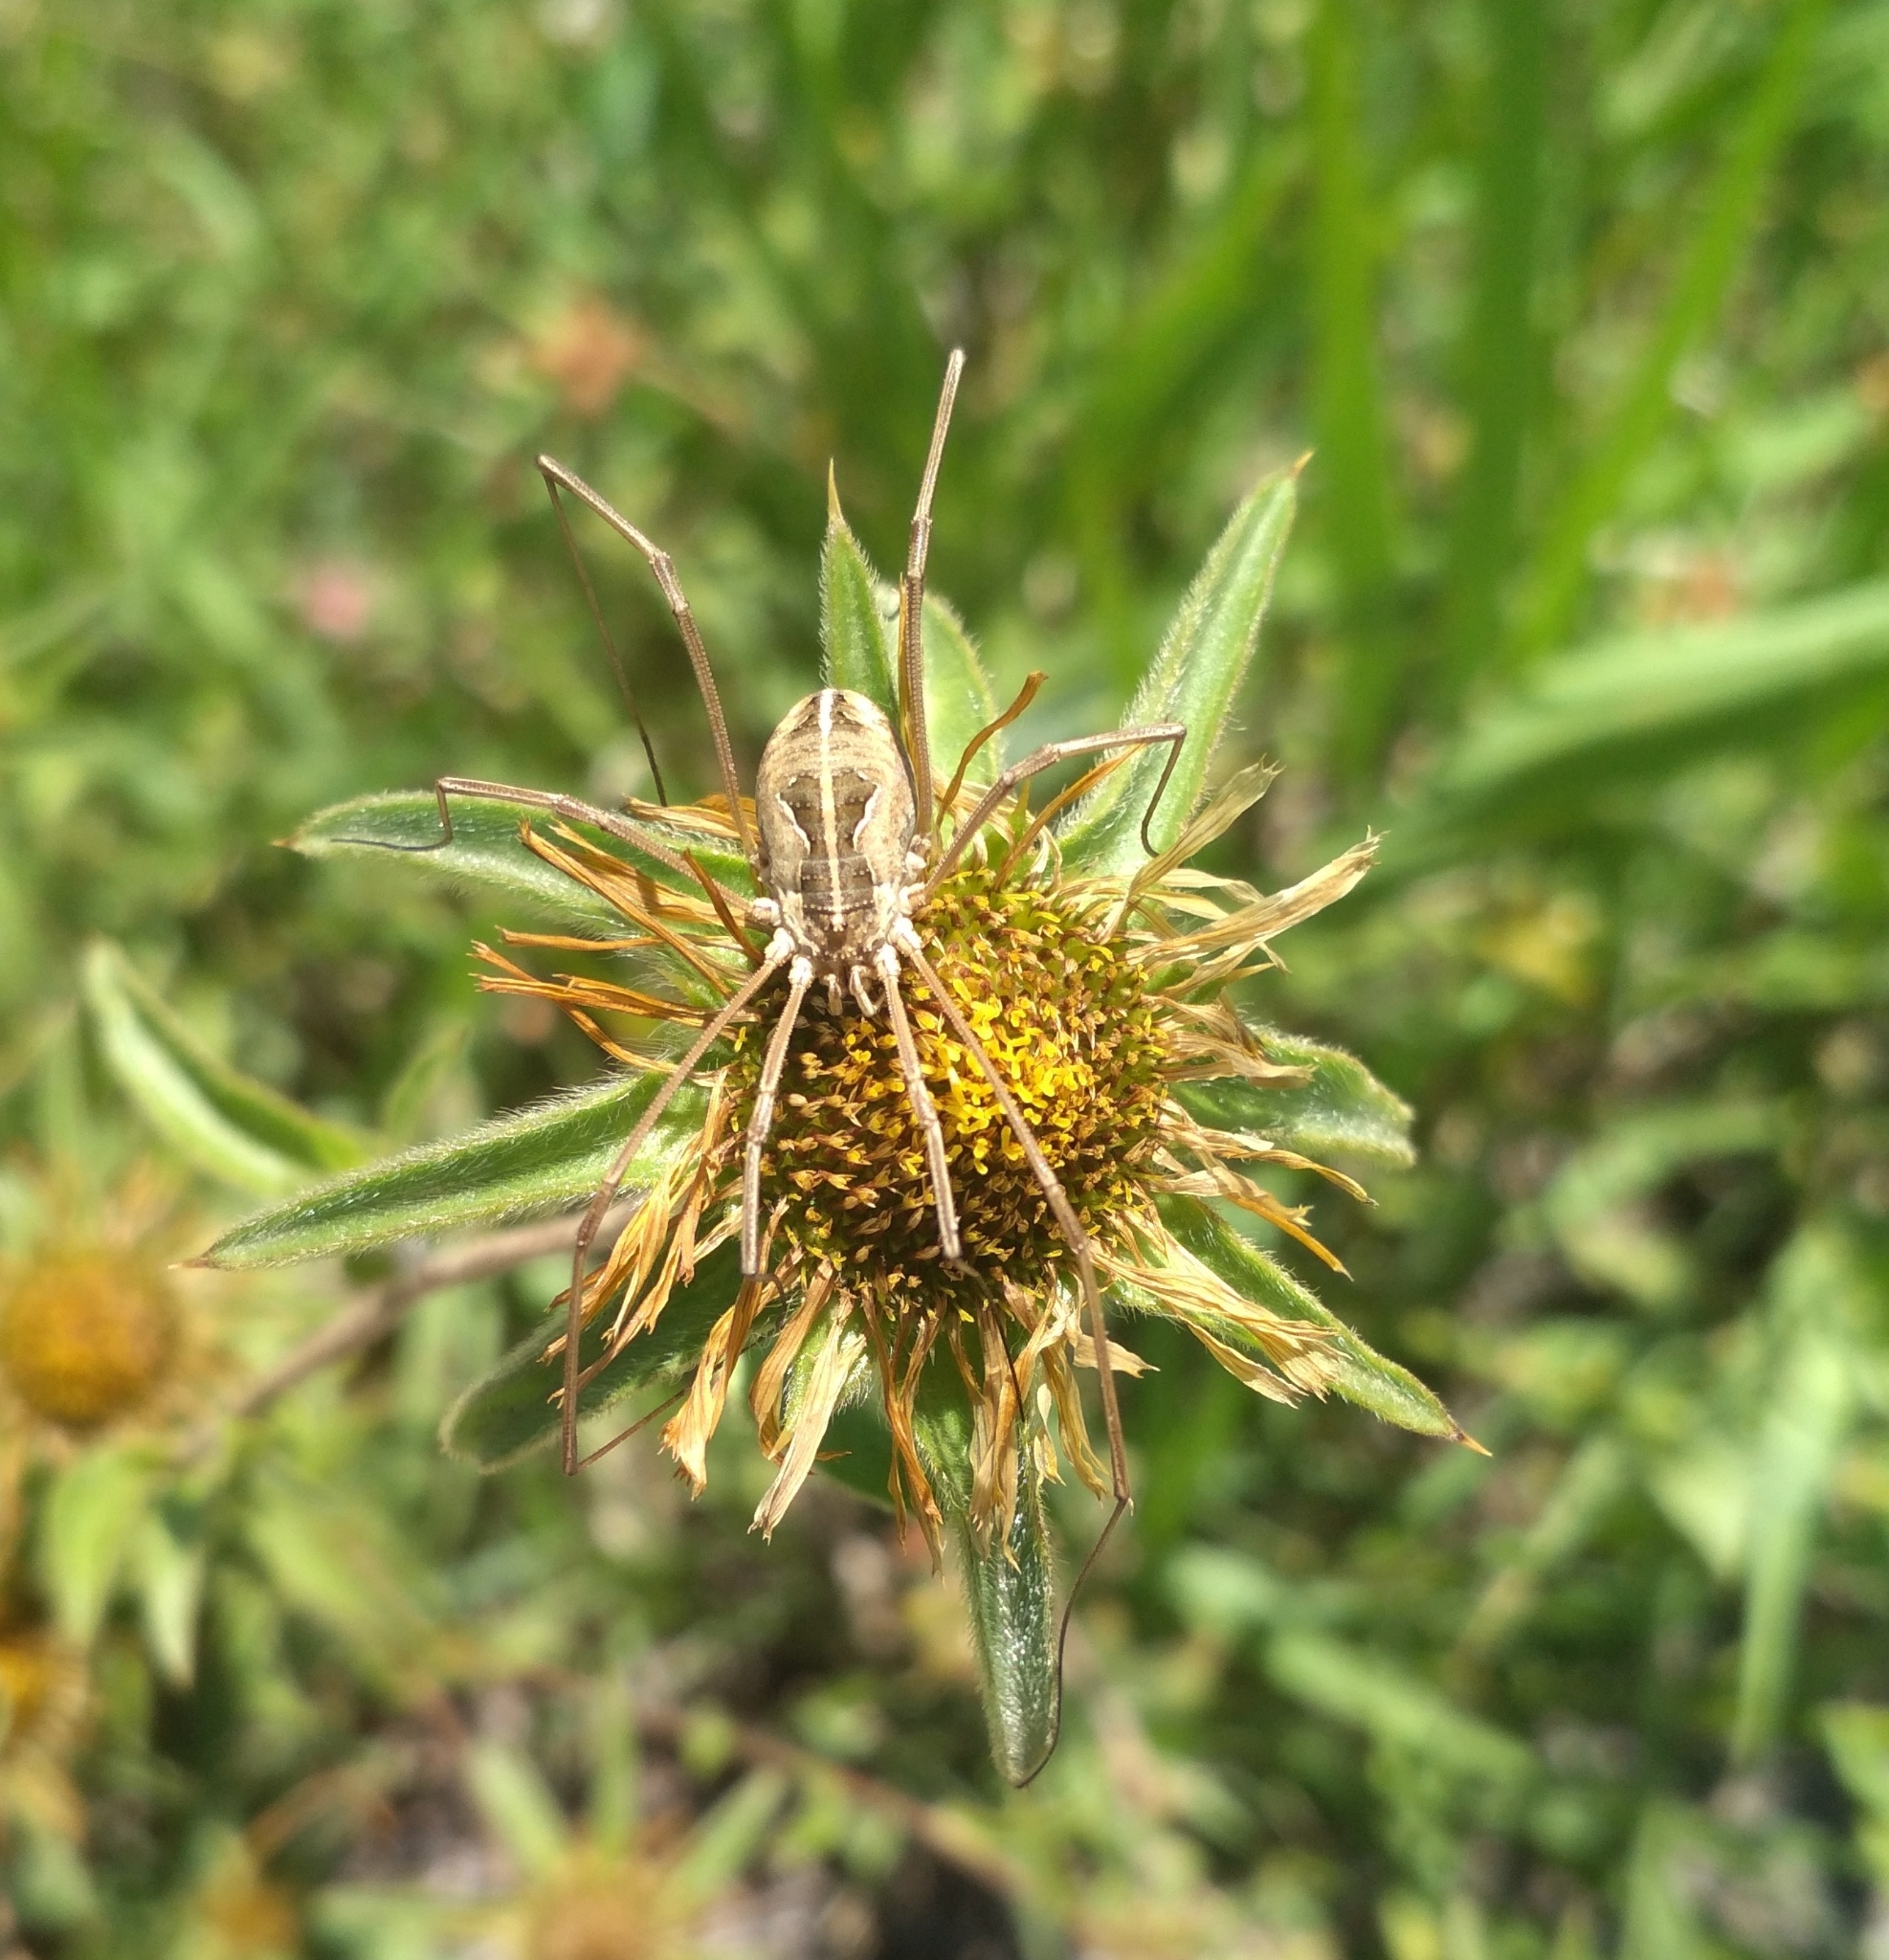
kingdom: Animalia
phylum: Arthropoda
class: Arachnida
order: Opiliones
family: Phalangiidae
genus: Metaphalangium
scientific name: Metaphalangium cirtanum
